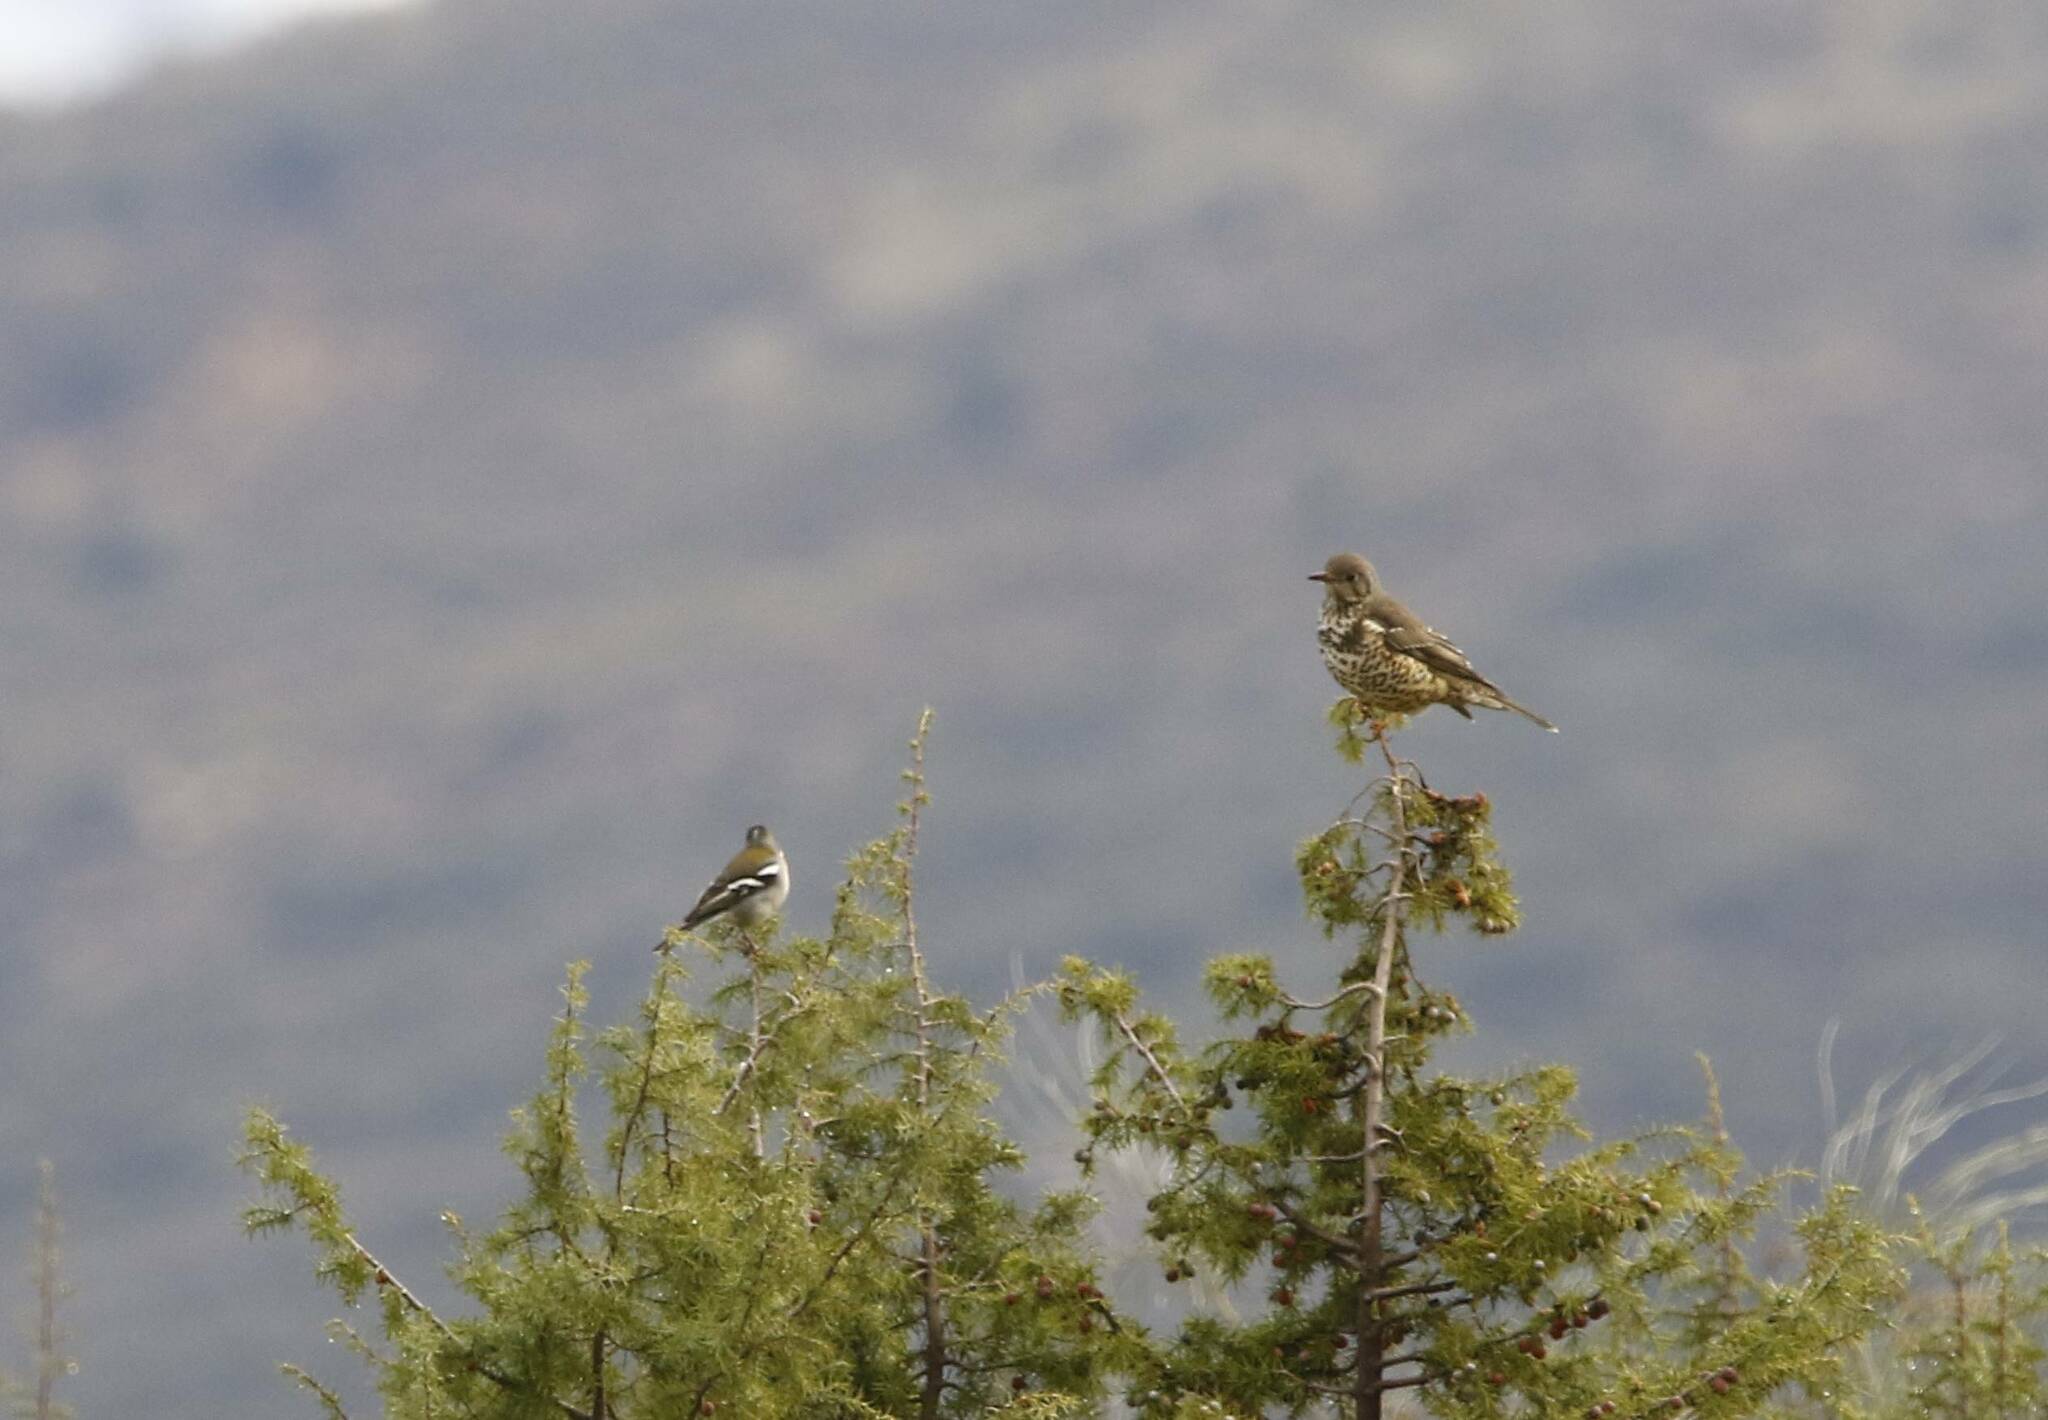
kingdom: Animalia
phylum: Chordata
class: Aves
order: Passeriformes
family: Turdidae
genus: Turdus
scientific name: Turdus viscivorus
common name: Mistle thrush
